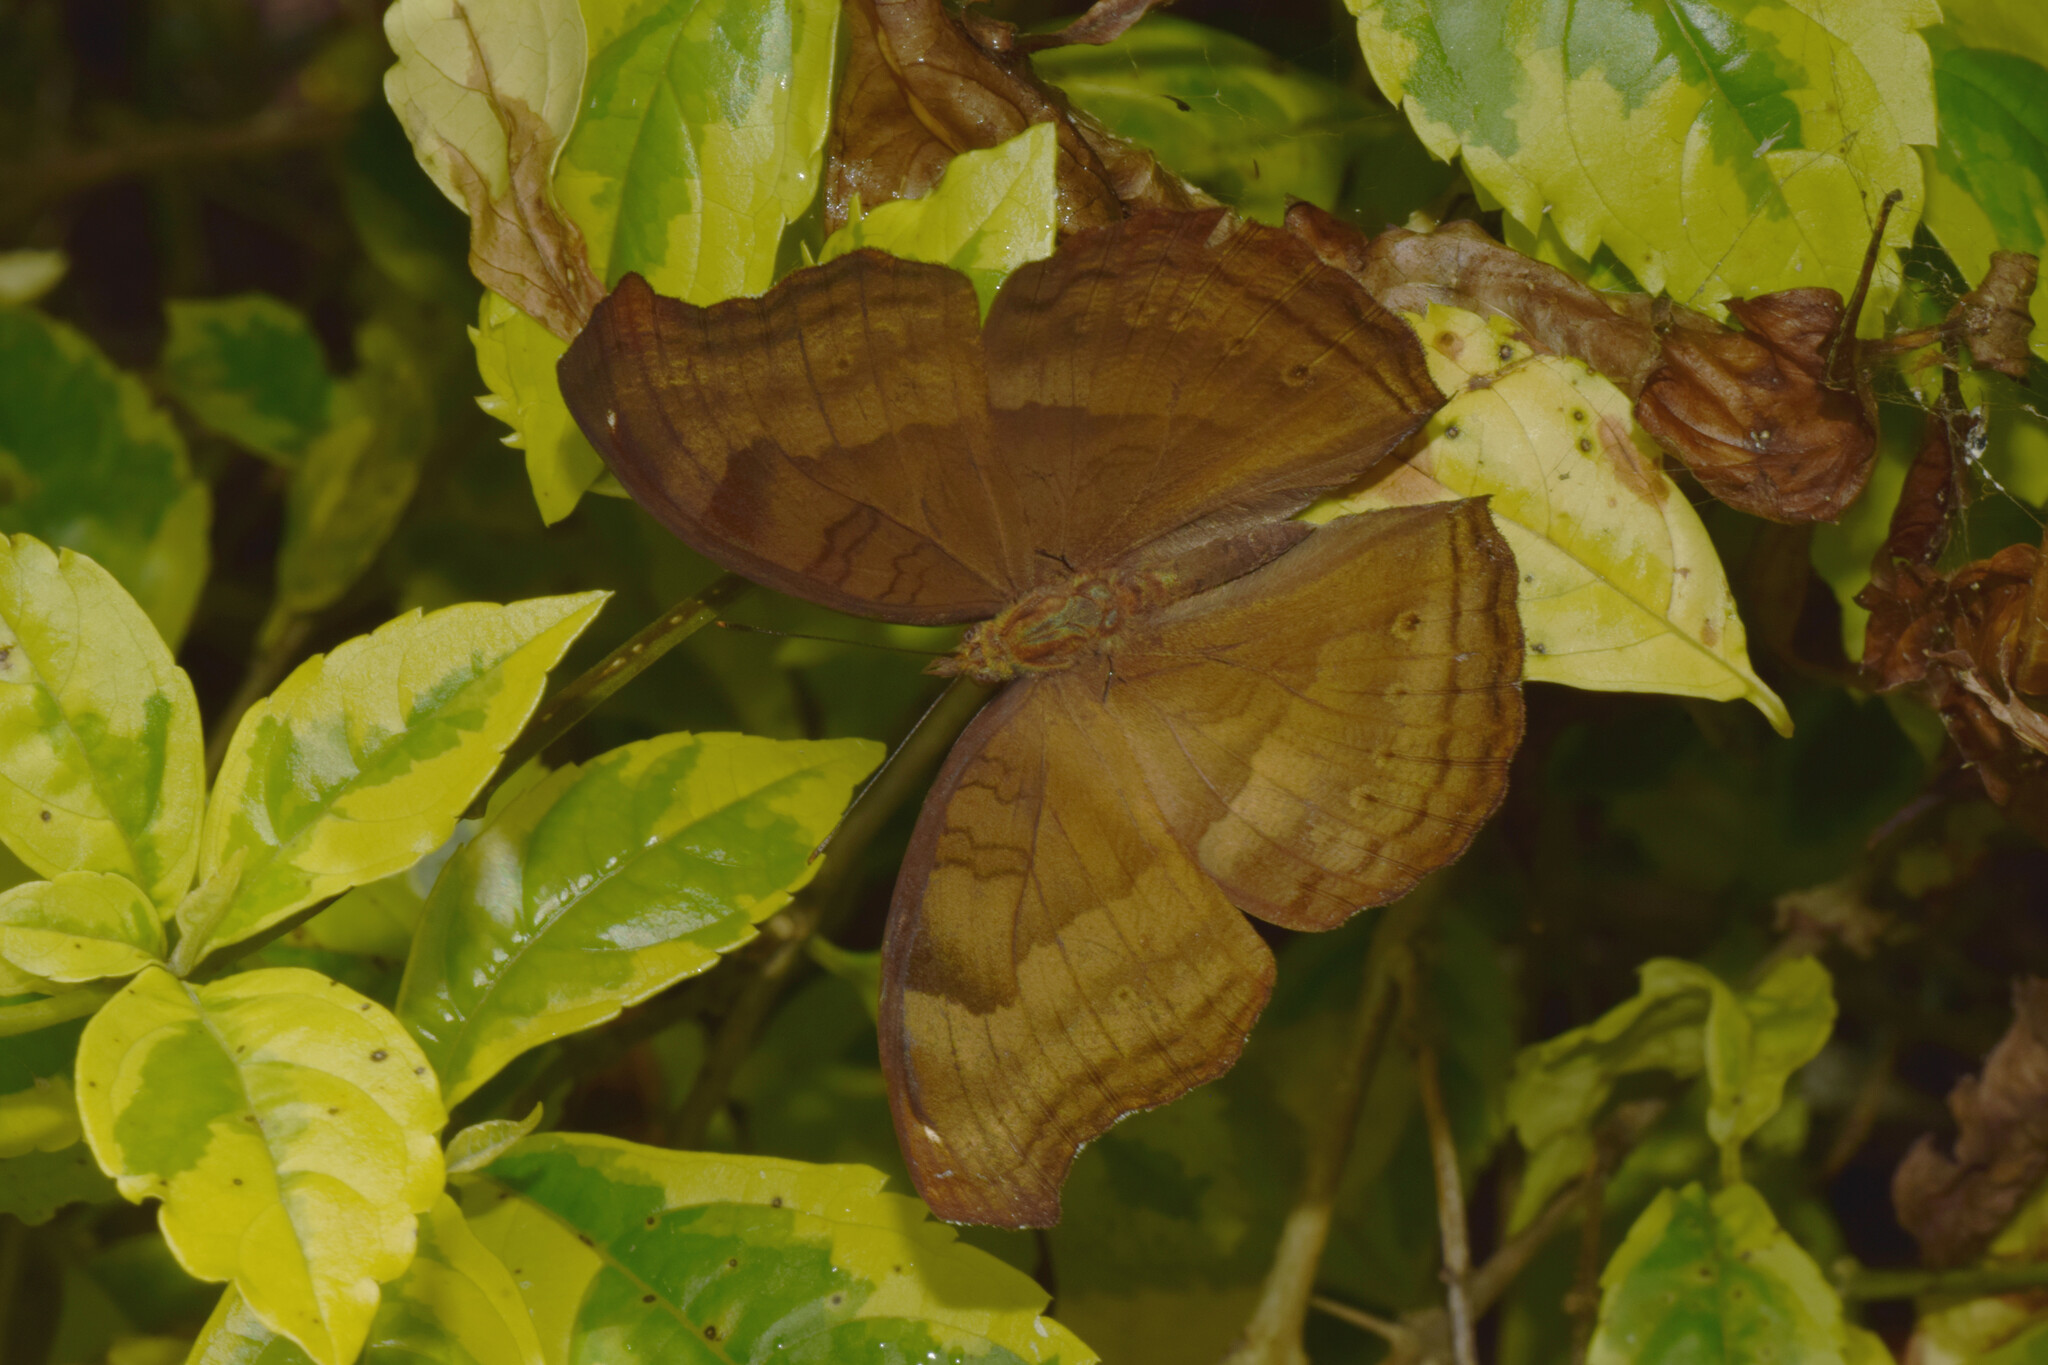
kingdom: Animalia
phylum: Arthropoda
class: Insecta
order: Lepidoptera
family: Nymphalidae
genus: Junonia
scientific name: Junonia iphita
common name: Chocolate pansy
